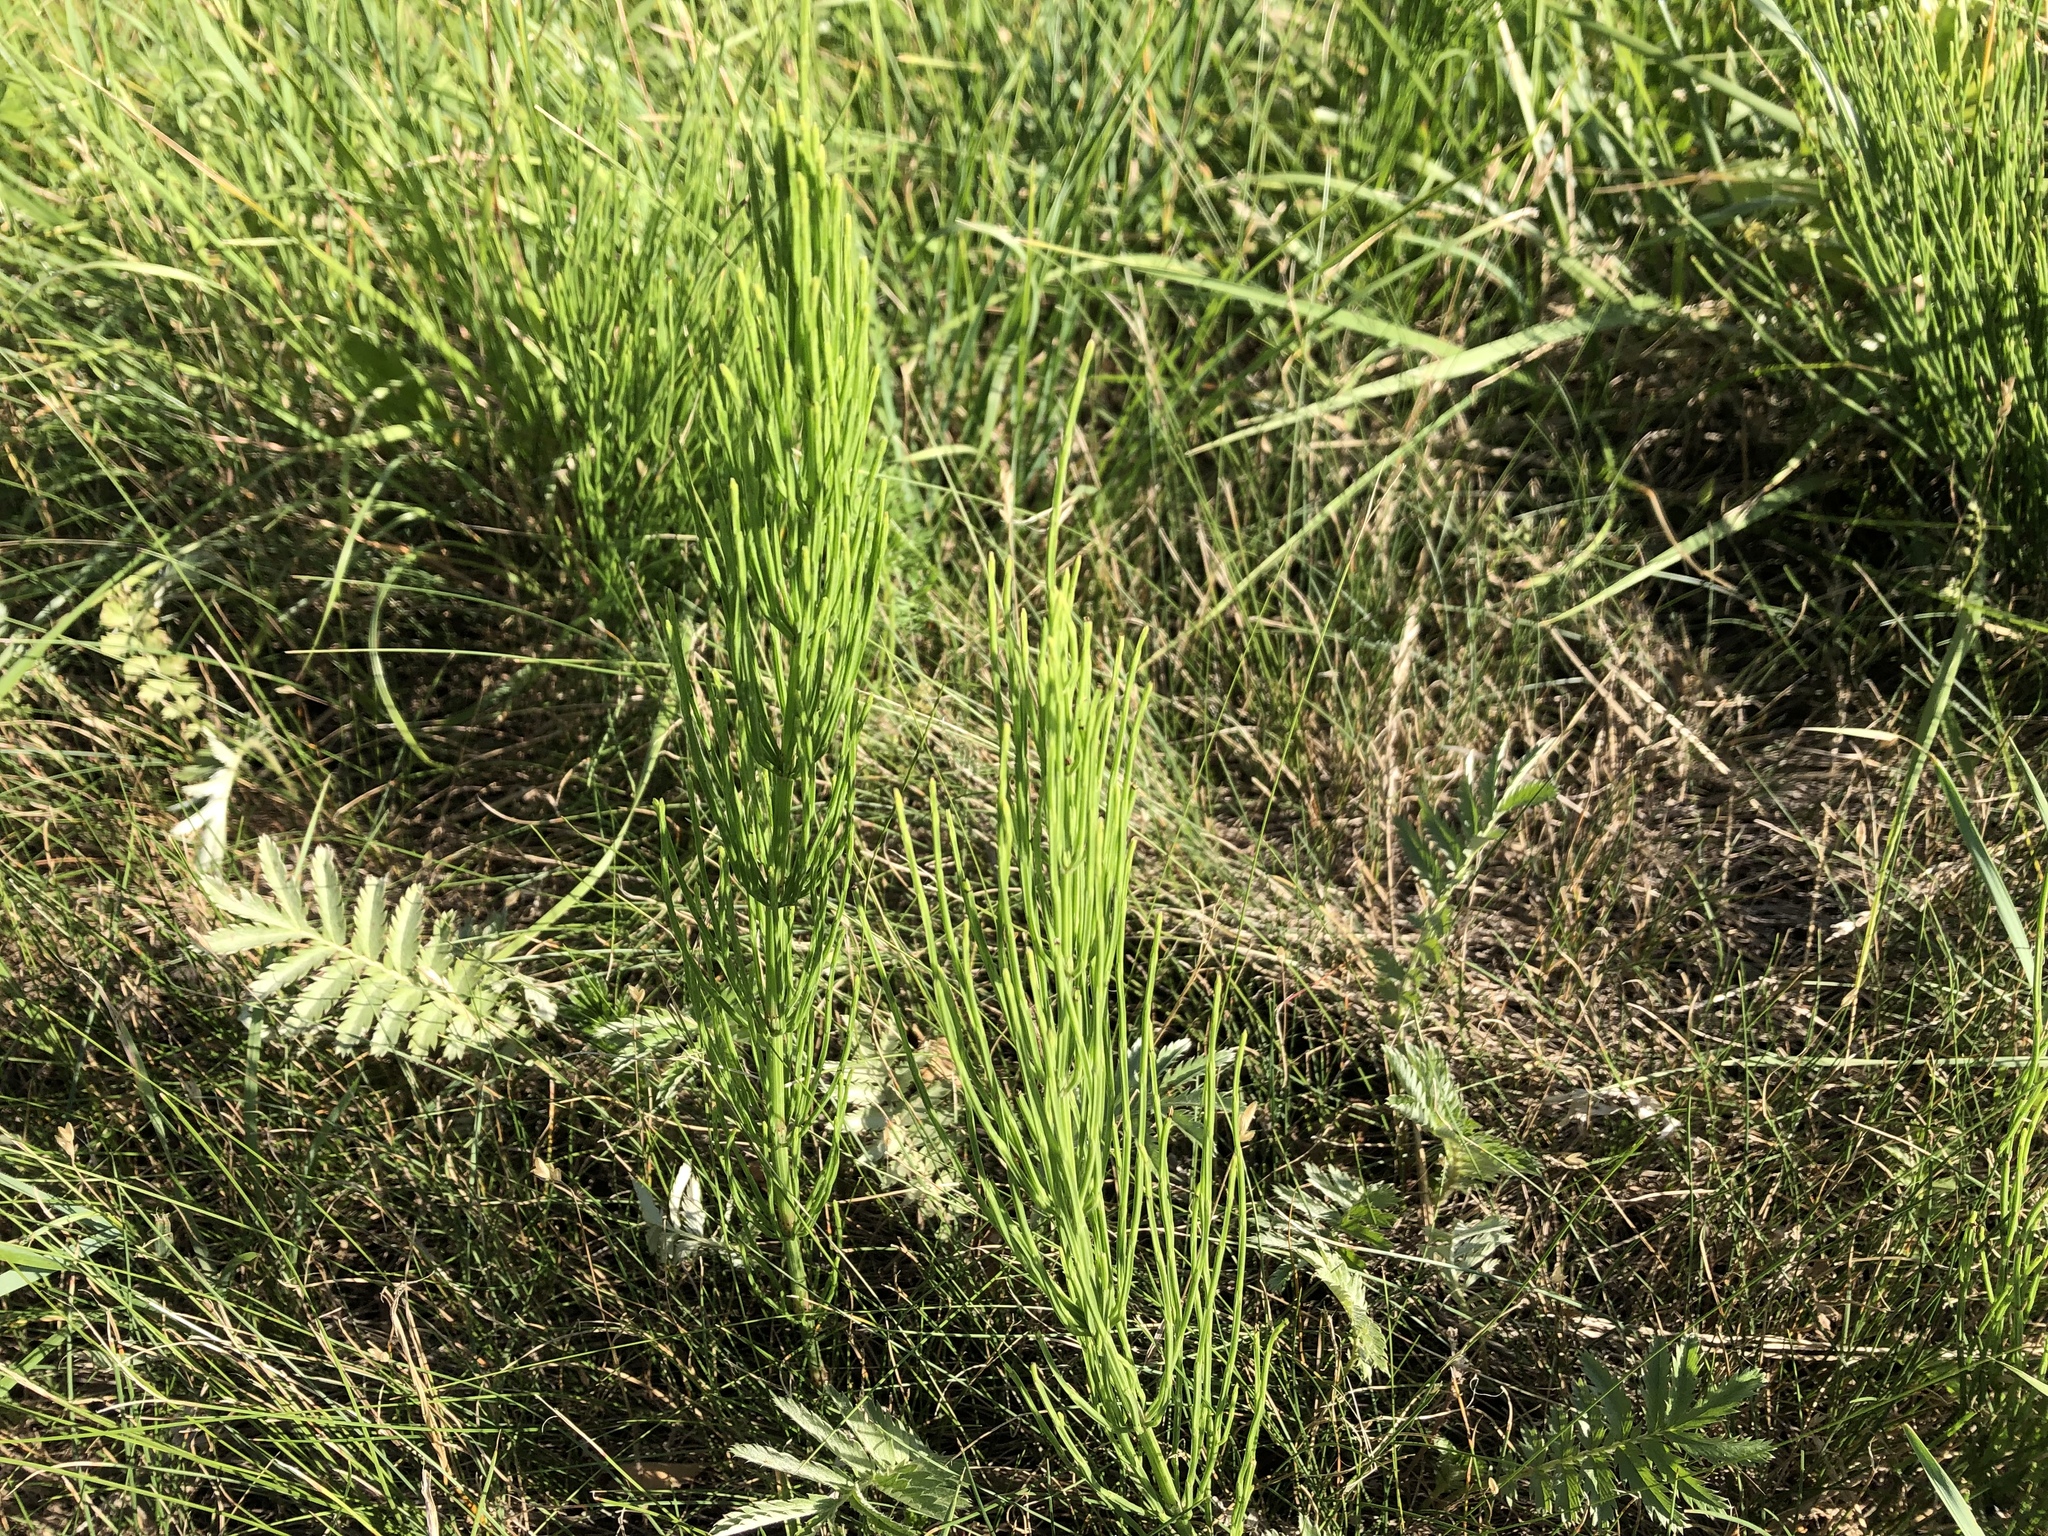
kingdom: Plantae
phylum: Tracheophyta
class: Polypodiopsida
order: Equisetales
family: Equisetaceae
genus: Equisetum
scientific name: Equisetum arvense
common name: Field horsetail
